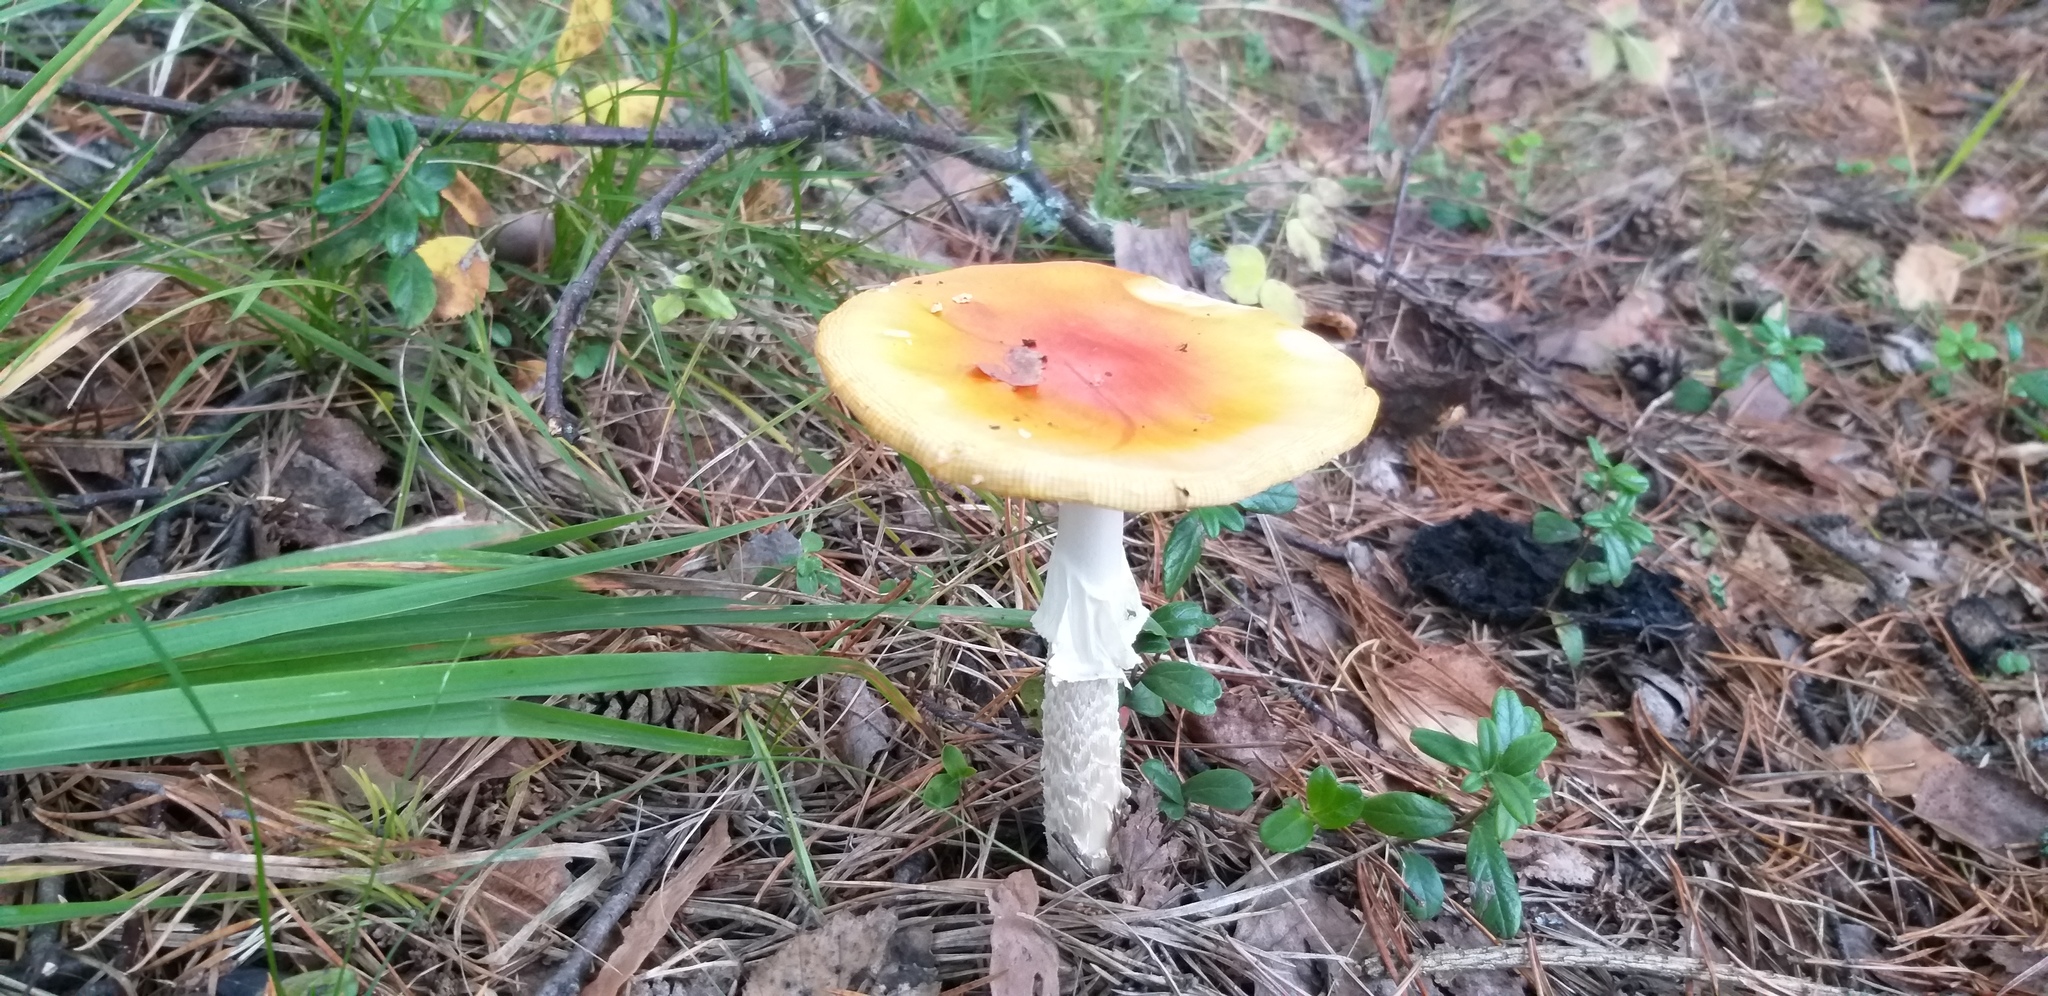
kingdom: Fungi
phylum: Basidiomycota
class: Agaricomycetes
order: Agaricales
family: Amanitaceae
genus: Amanita
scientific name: Amanita muscaria
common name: Fly agaric
